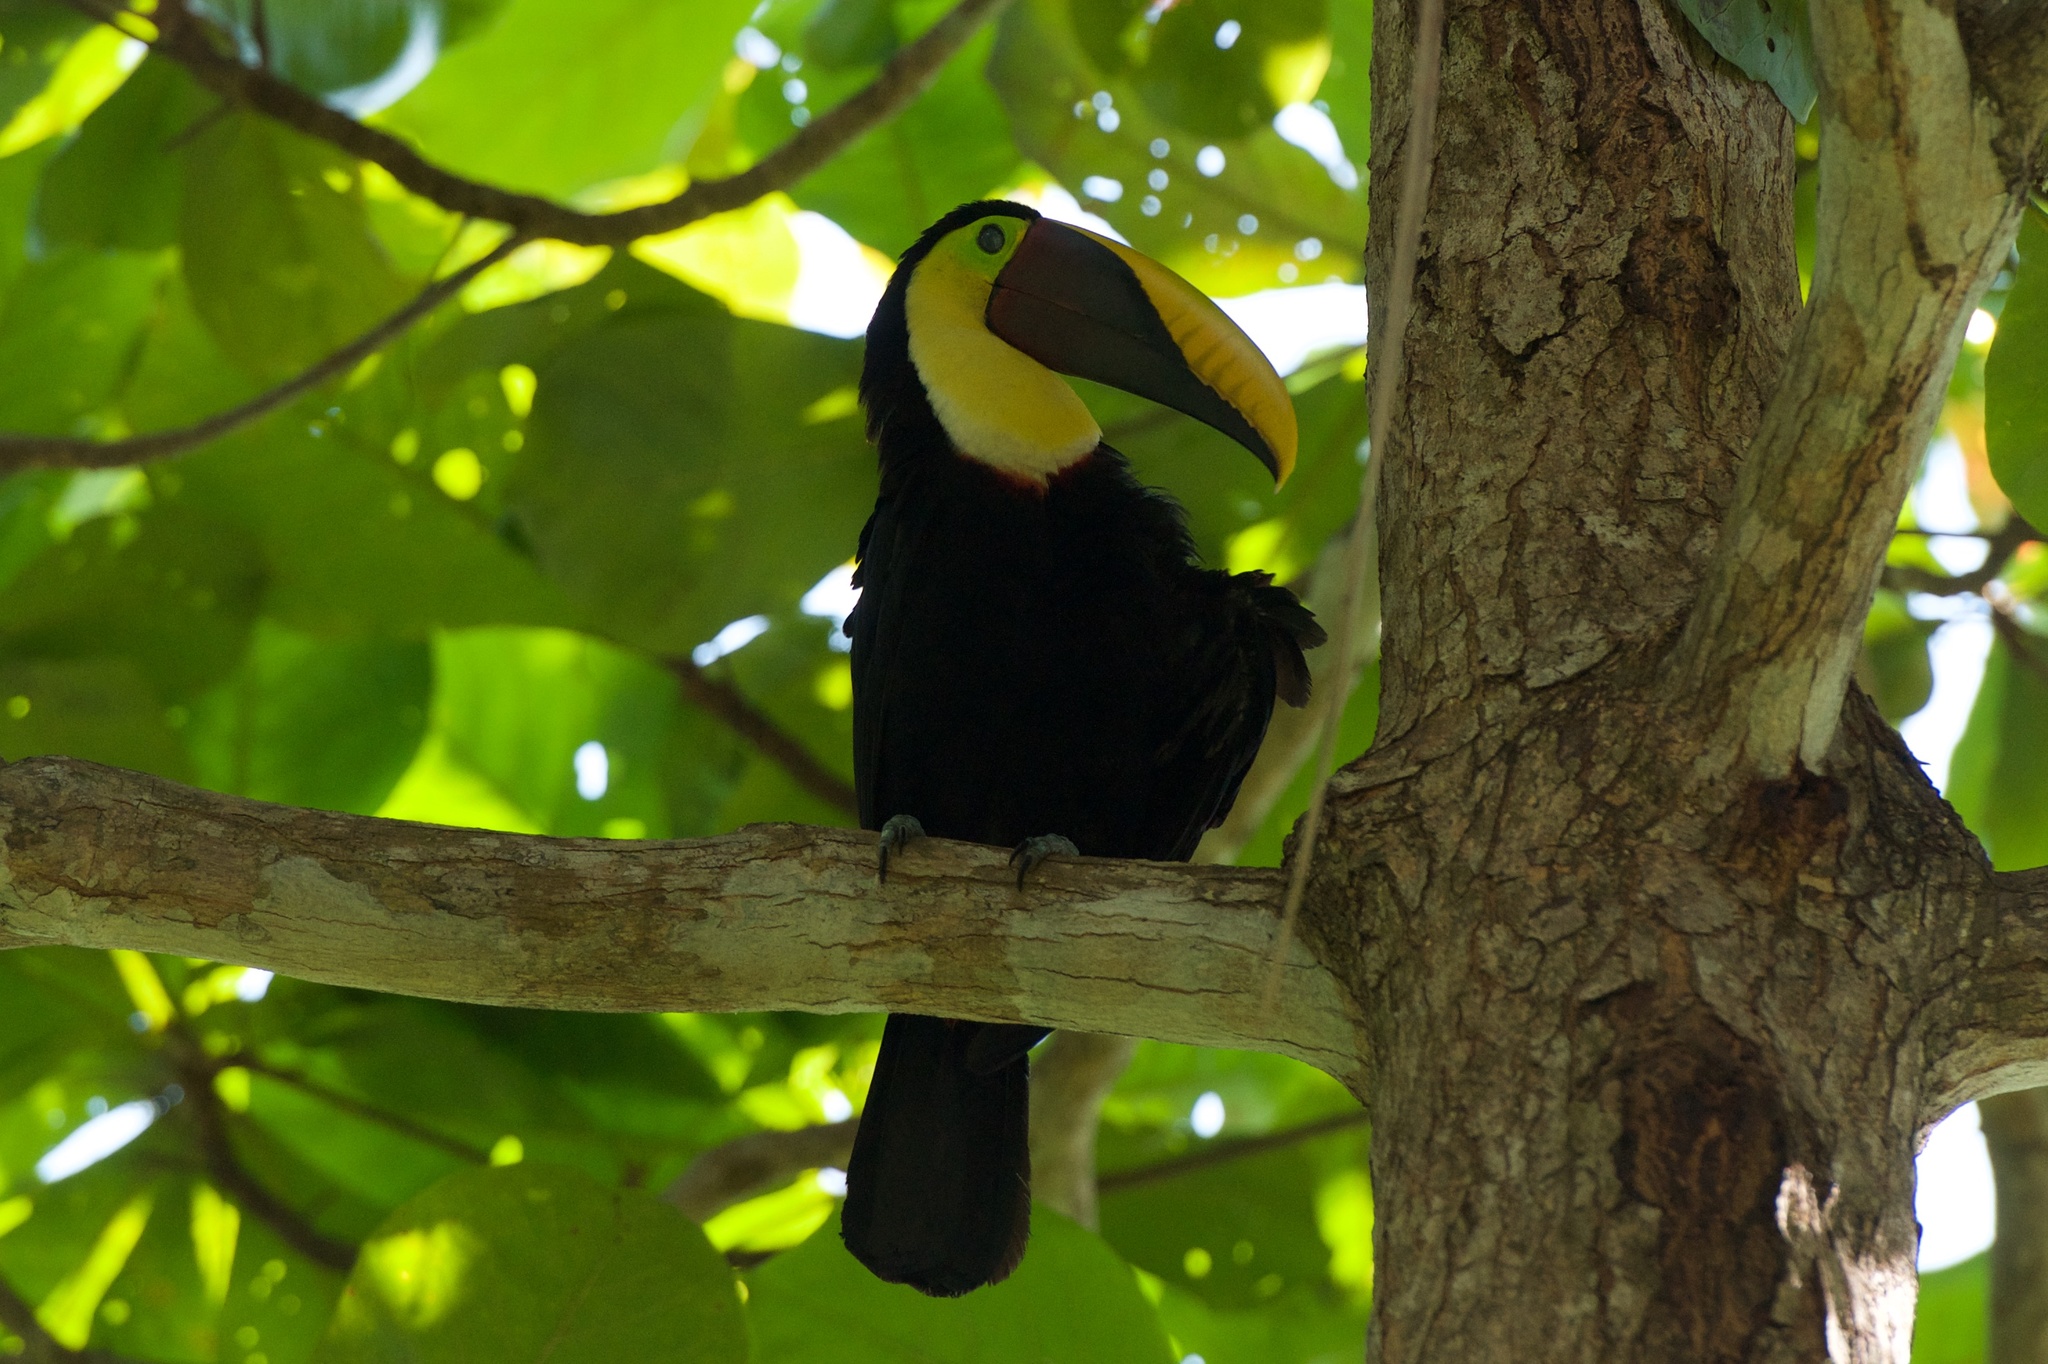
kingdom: Animalia
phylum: Chordata
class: Aves
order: Piciformes
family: Ramphastidae
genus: Ramphastos
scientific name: Ramphastos ambiguus
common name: Yellow-throated toucan
